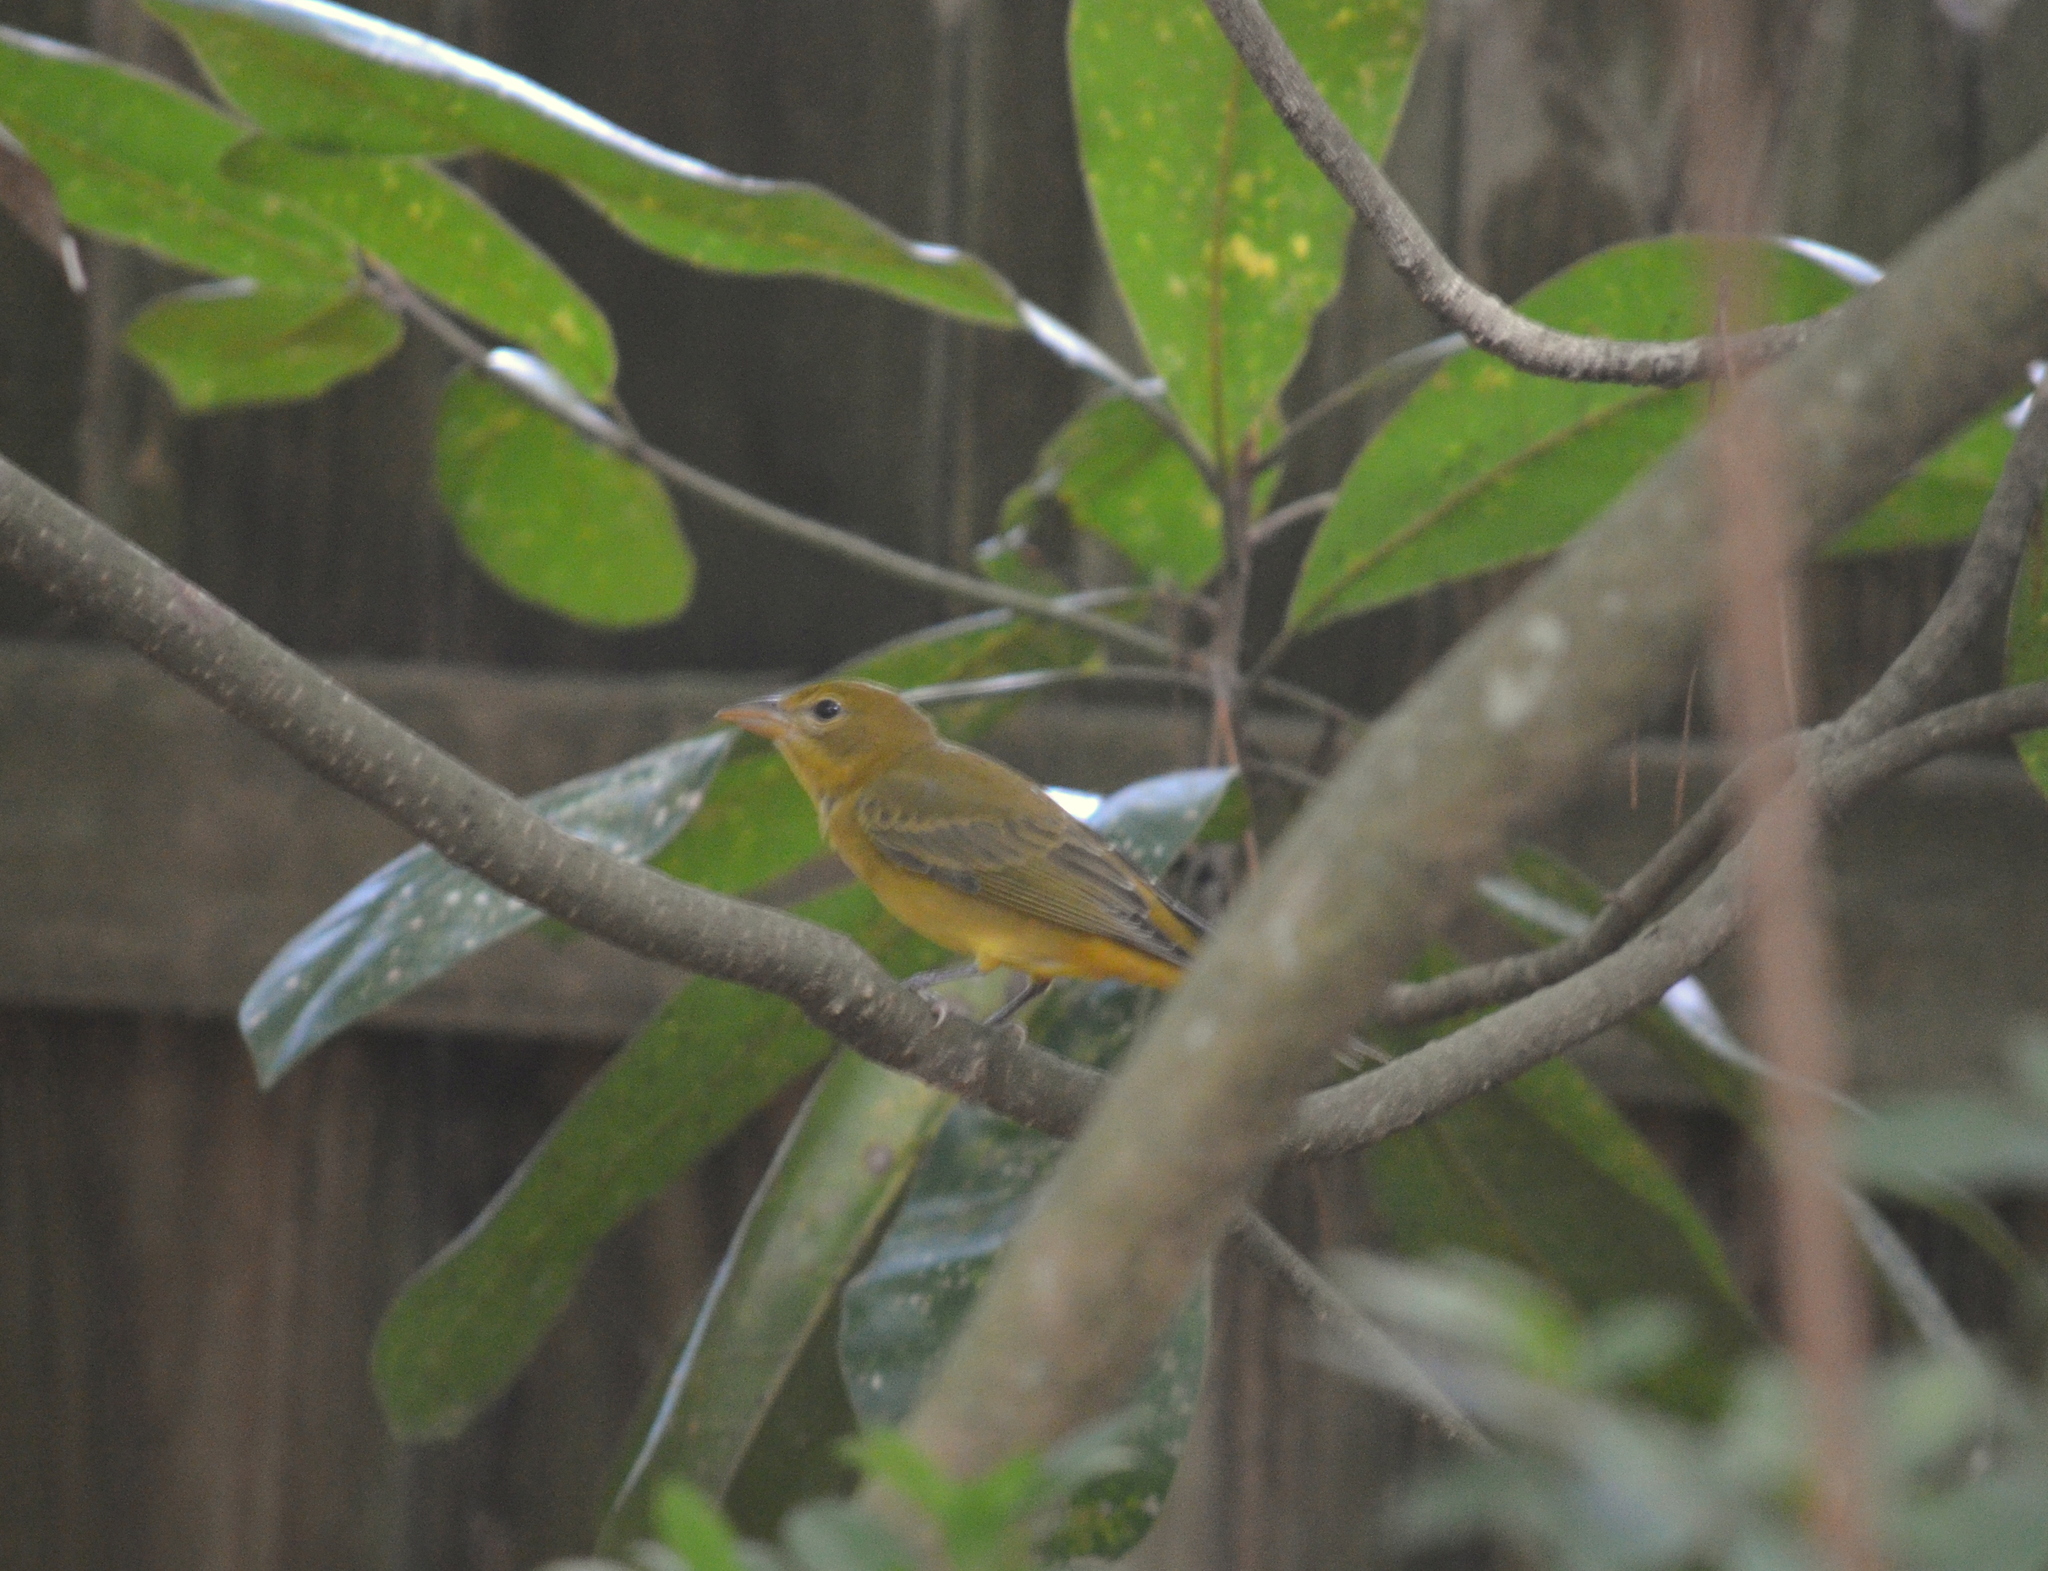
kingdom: Animalia
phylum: Chordata
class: Aves
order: Passeriformes
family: Cardinalidae
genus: Piranga
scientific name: Piranga rubra
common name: Summer tanager
